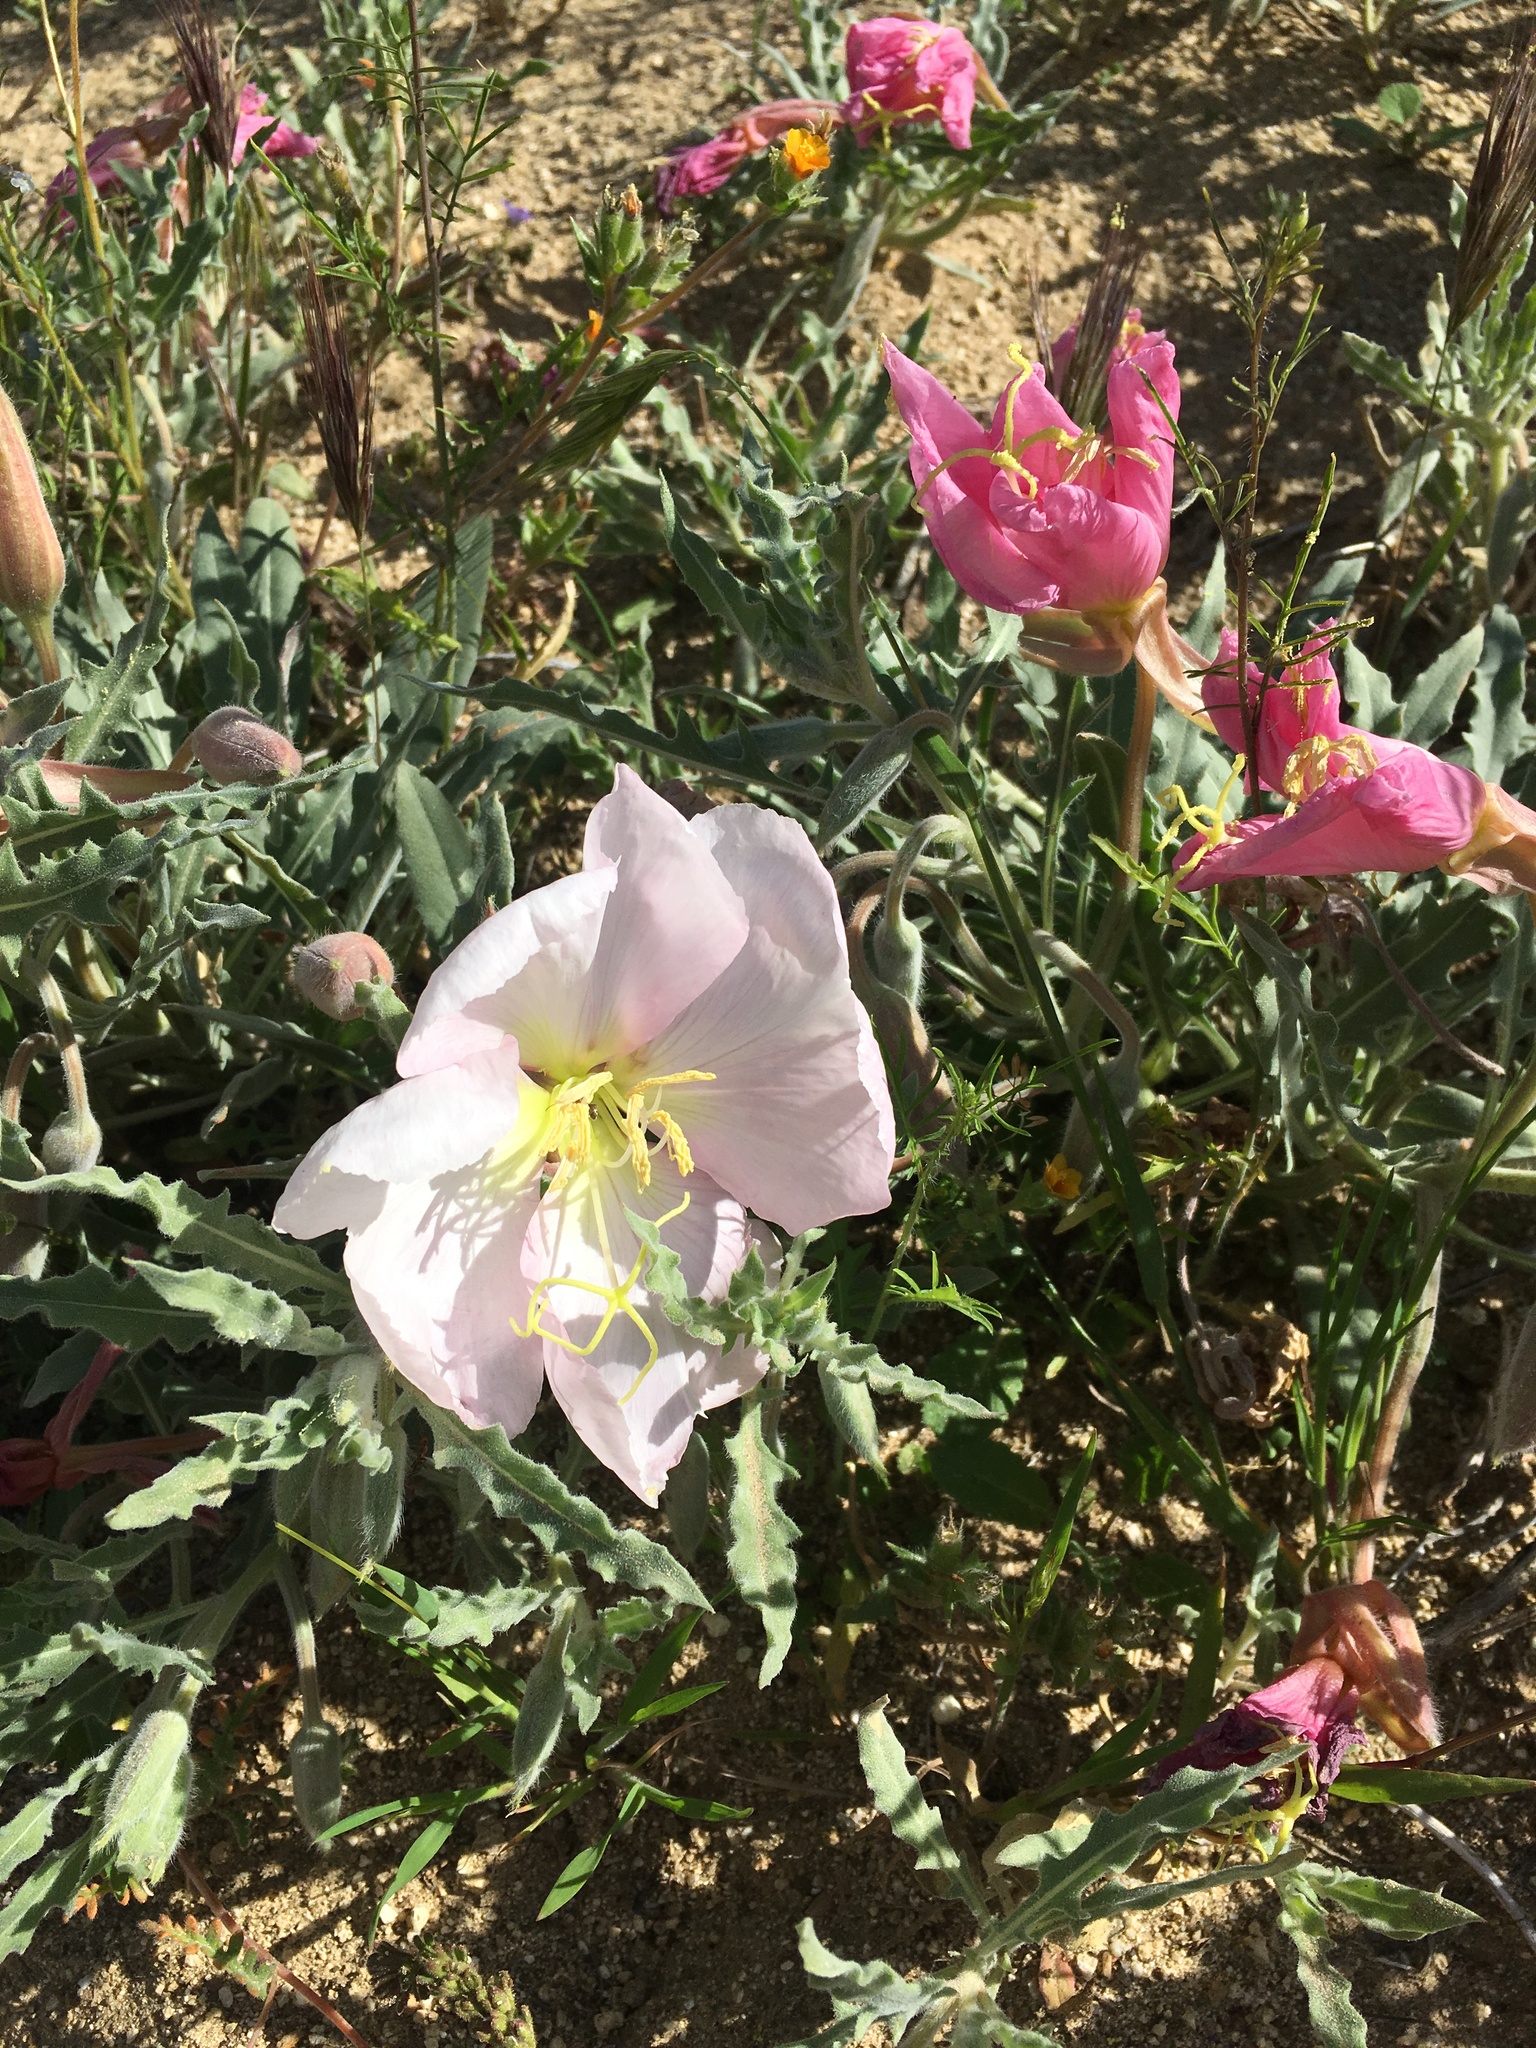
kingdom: Plantae
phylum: Tracheophyta
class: Magnoliopsida
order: Myrtales
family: Onagraceae
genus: Oenothera
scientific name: Oenothera californica
